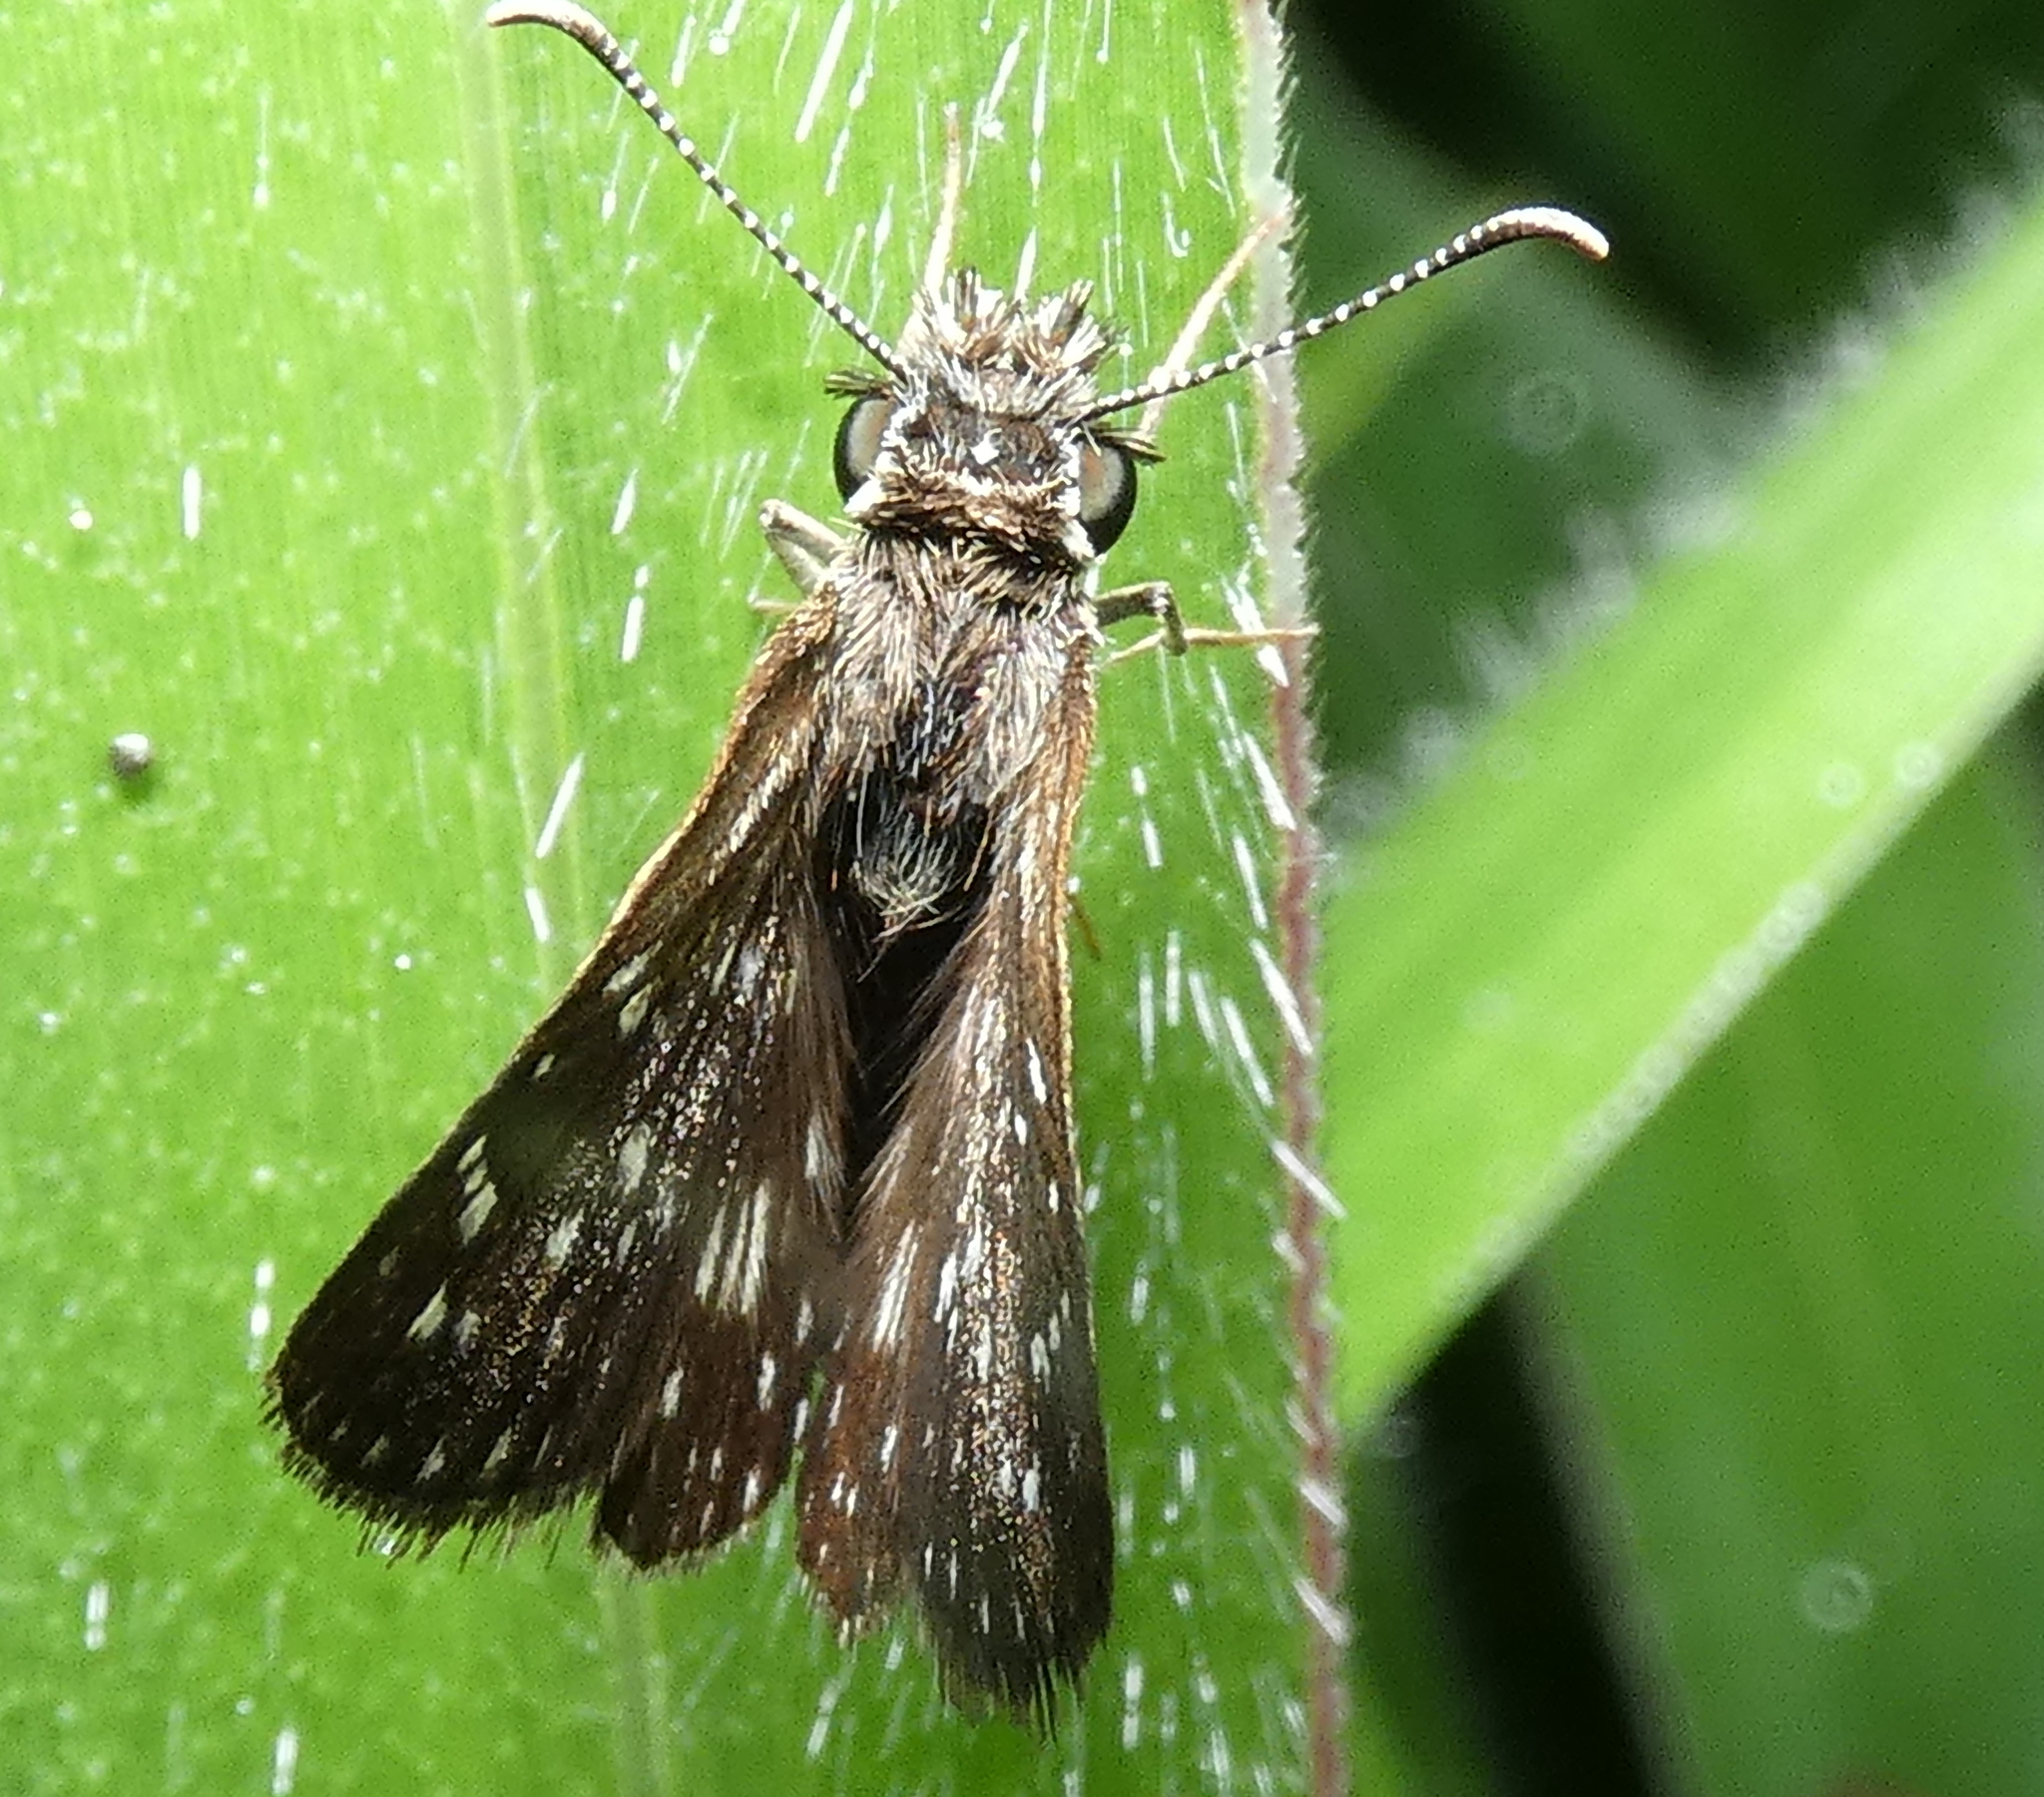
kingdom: Animalia
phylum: Arthropoda
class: Insecta
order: Lepidoptera
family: Hesperiidae
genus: Chirgus
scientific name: Chirgus
